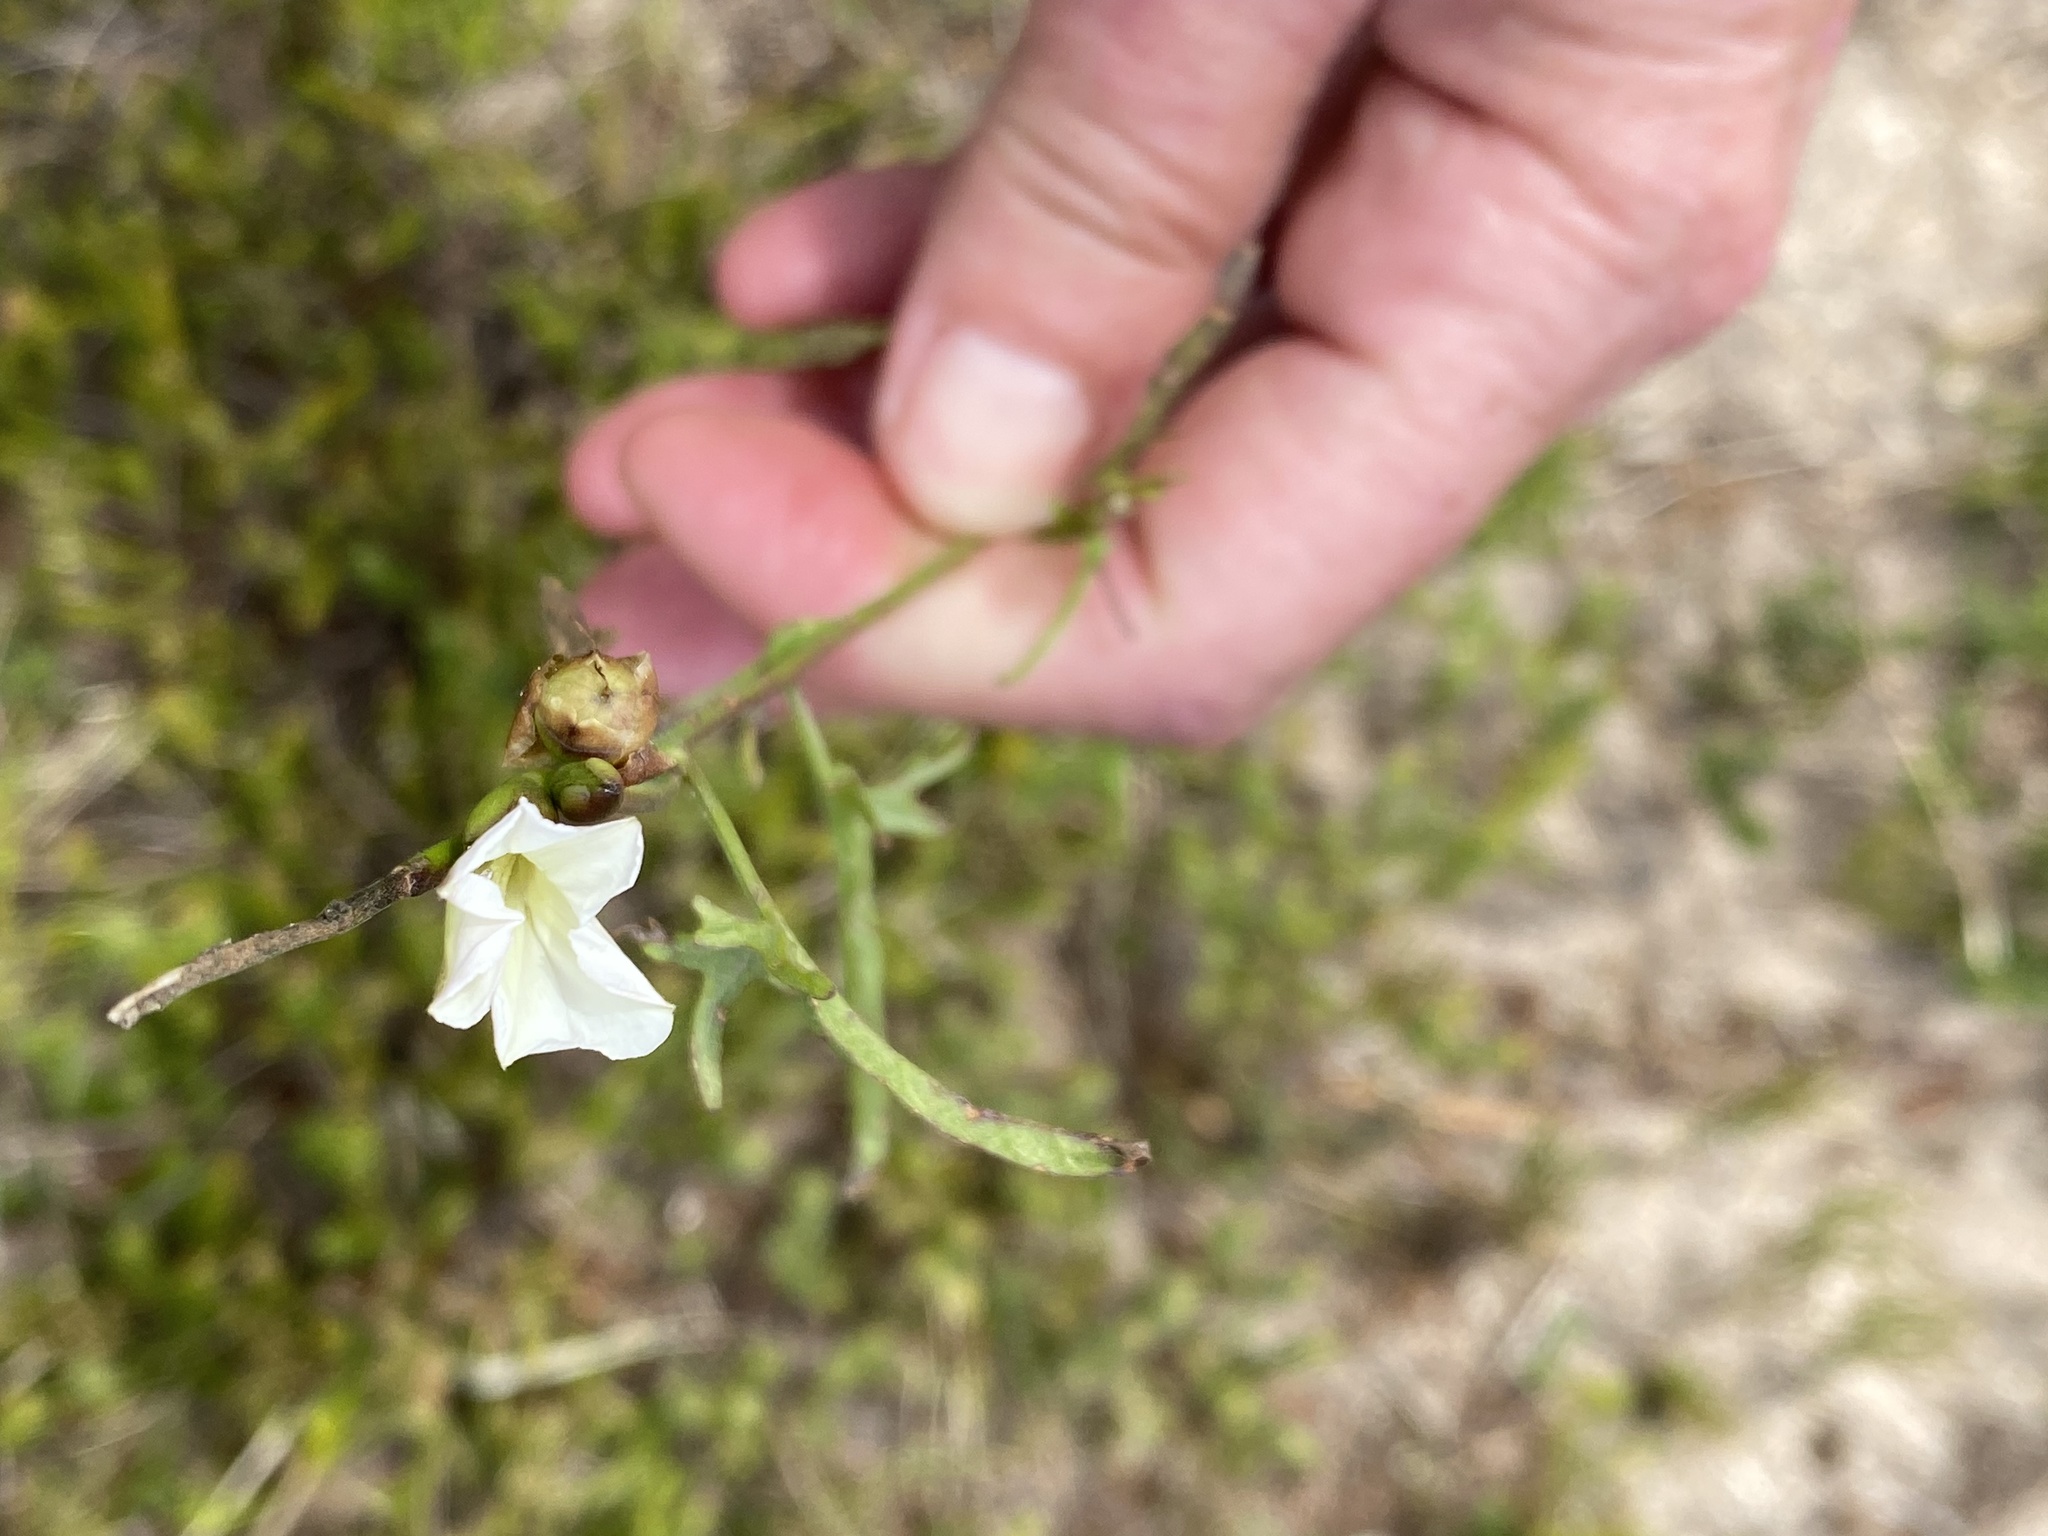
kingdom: Plantae
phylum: Tracheophyta
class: Magnoliopsida
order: Solanales
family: Convolvulaceae
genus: Convolvulus
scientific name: Convolvulus sagittatus
